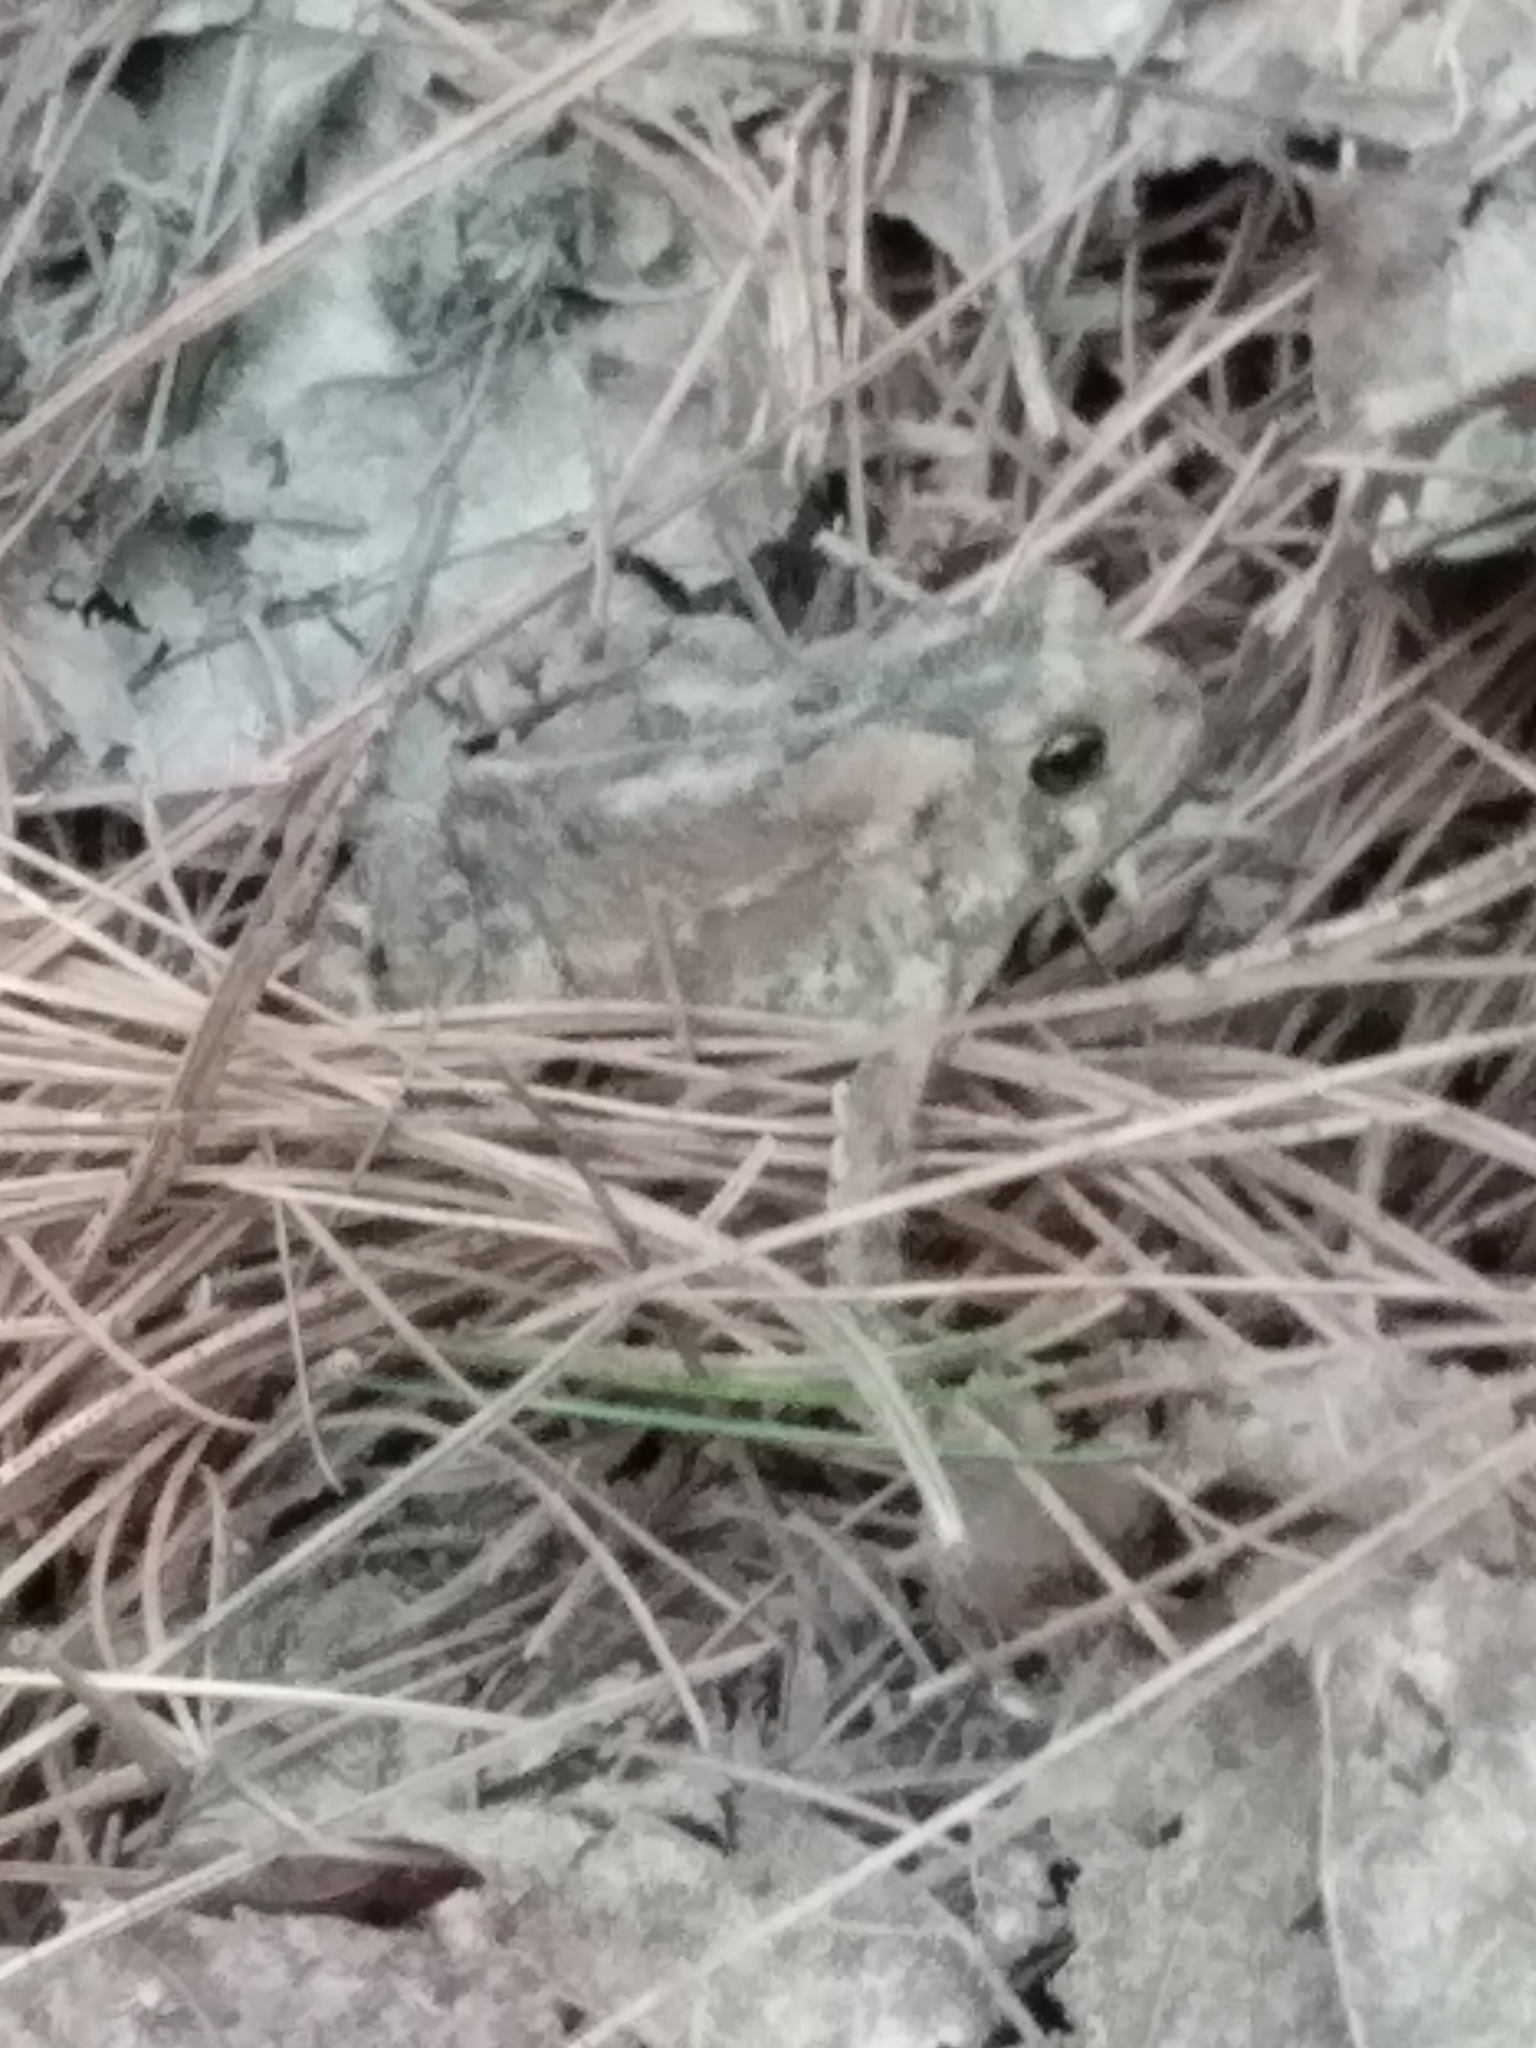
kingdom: Animalia
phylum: Chordata
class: Amphibia
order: Anura
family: Bufonidae
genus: Anaxyrus
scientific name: Anaxyrus americanus
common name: American toad
